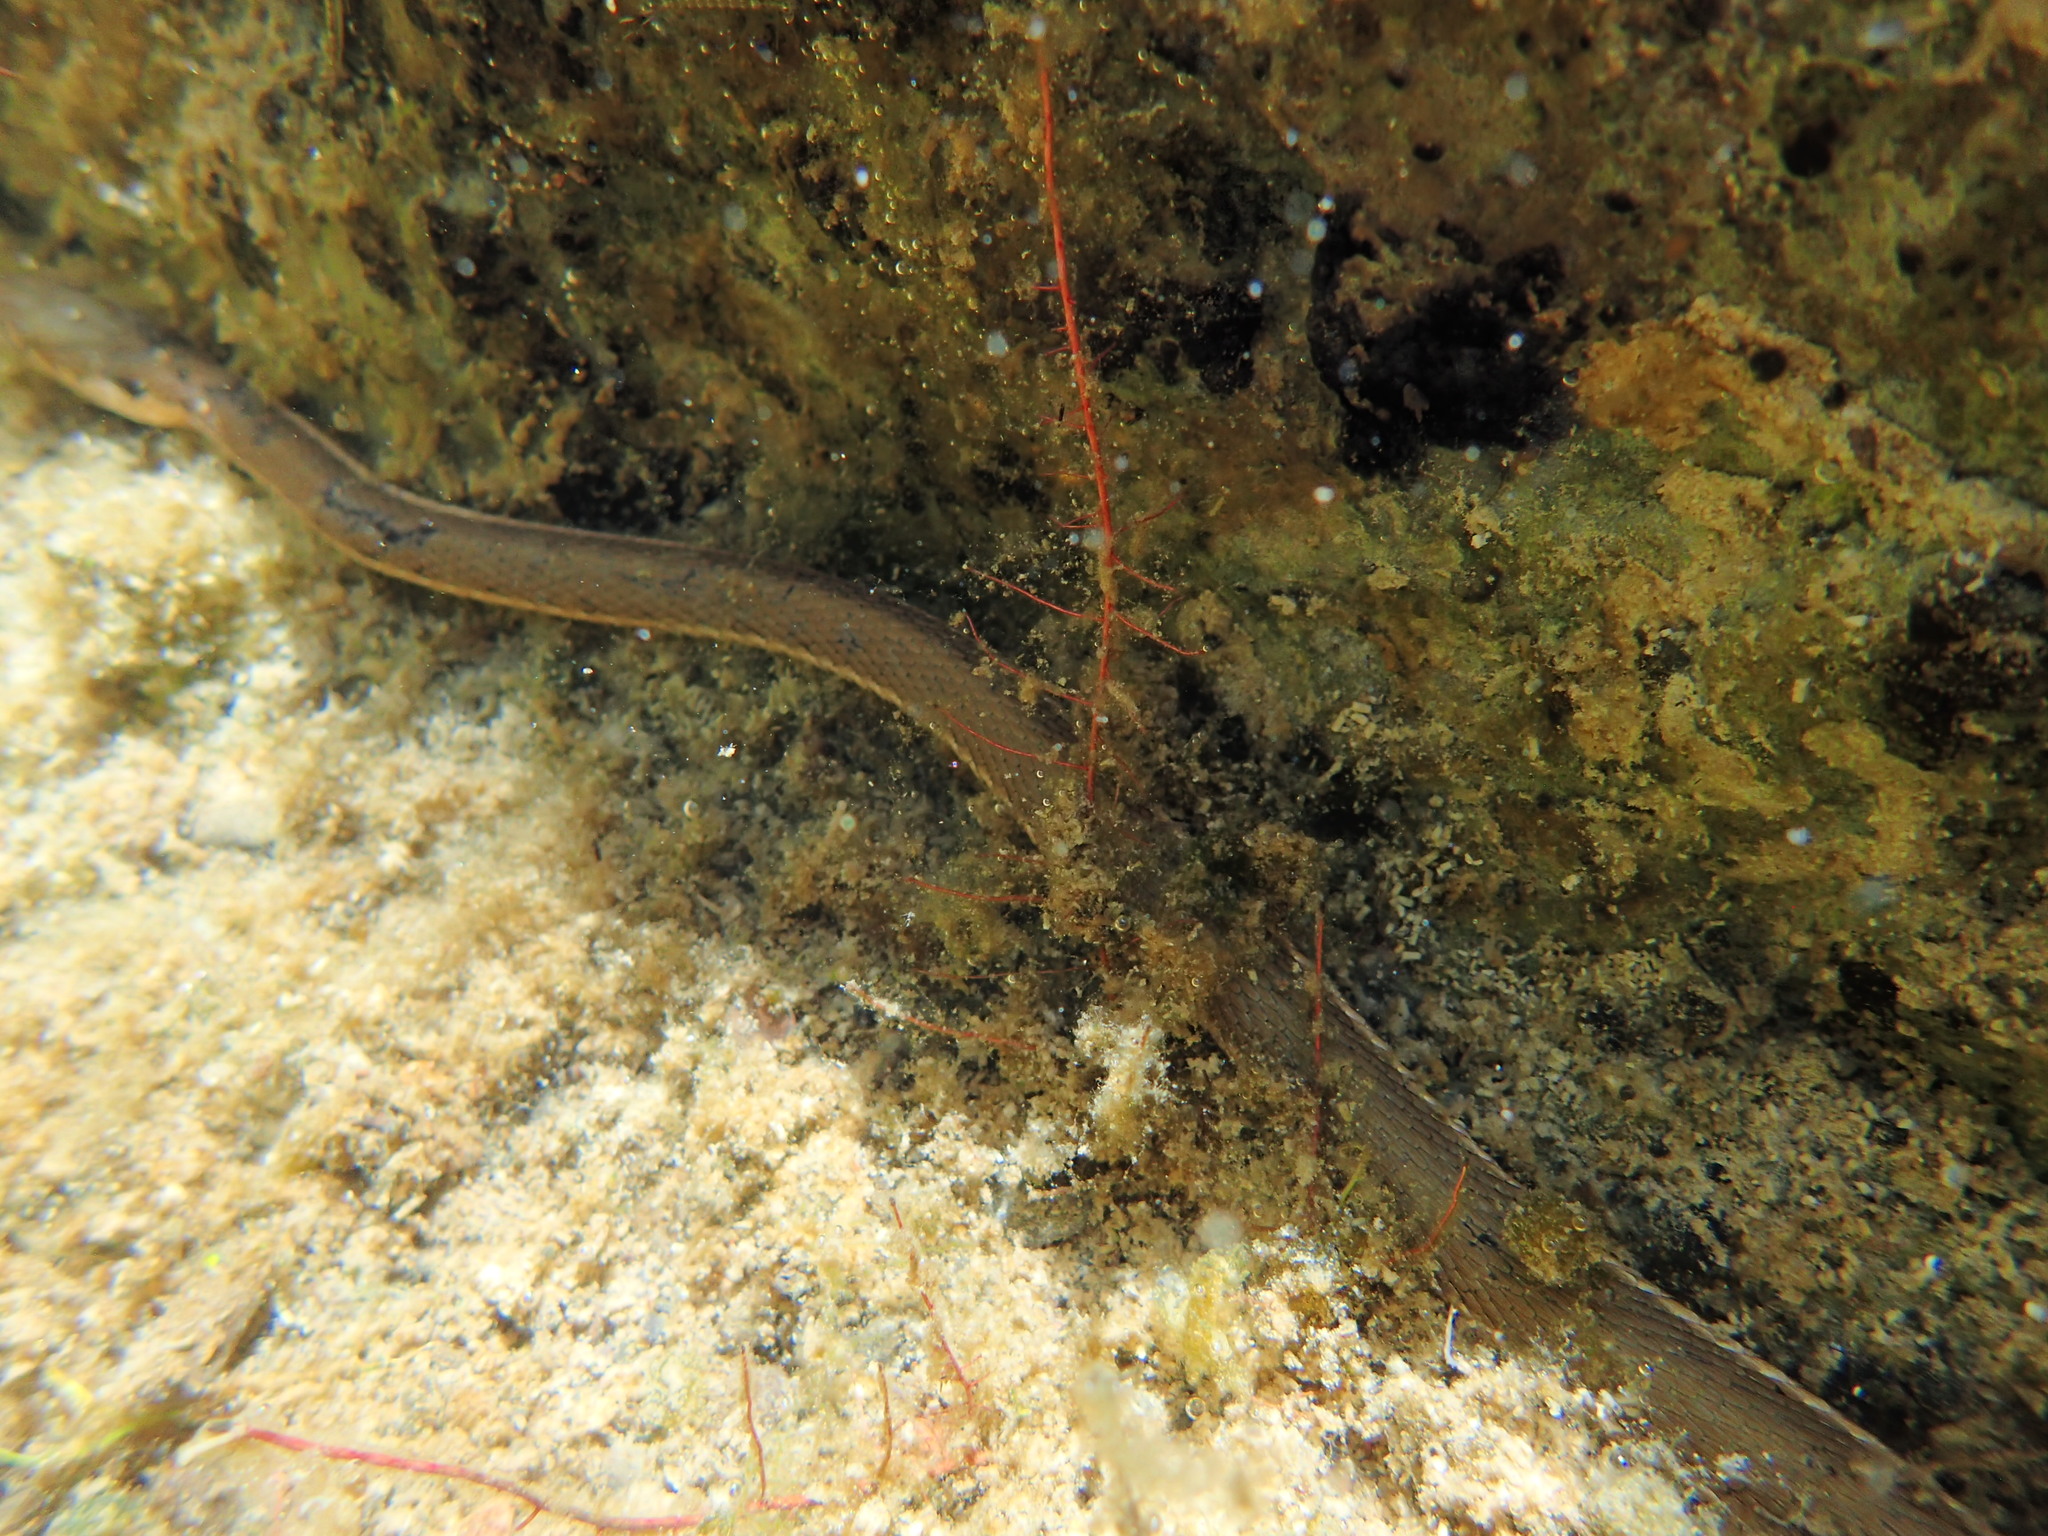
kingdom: Animalia
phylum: Chordata
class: Squamata
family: Colubridae
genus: Thamnophis
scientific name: Thamnophis hammondii
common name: Two-striped garter snake
